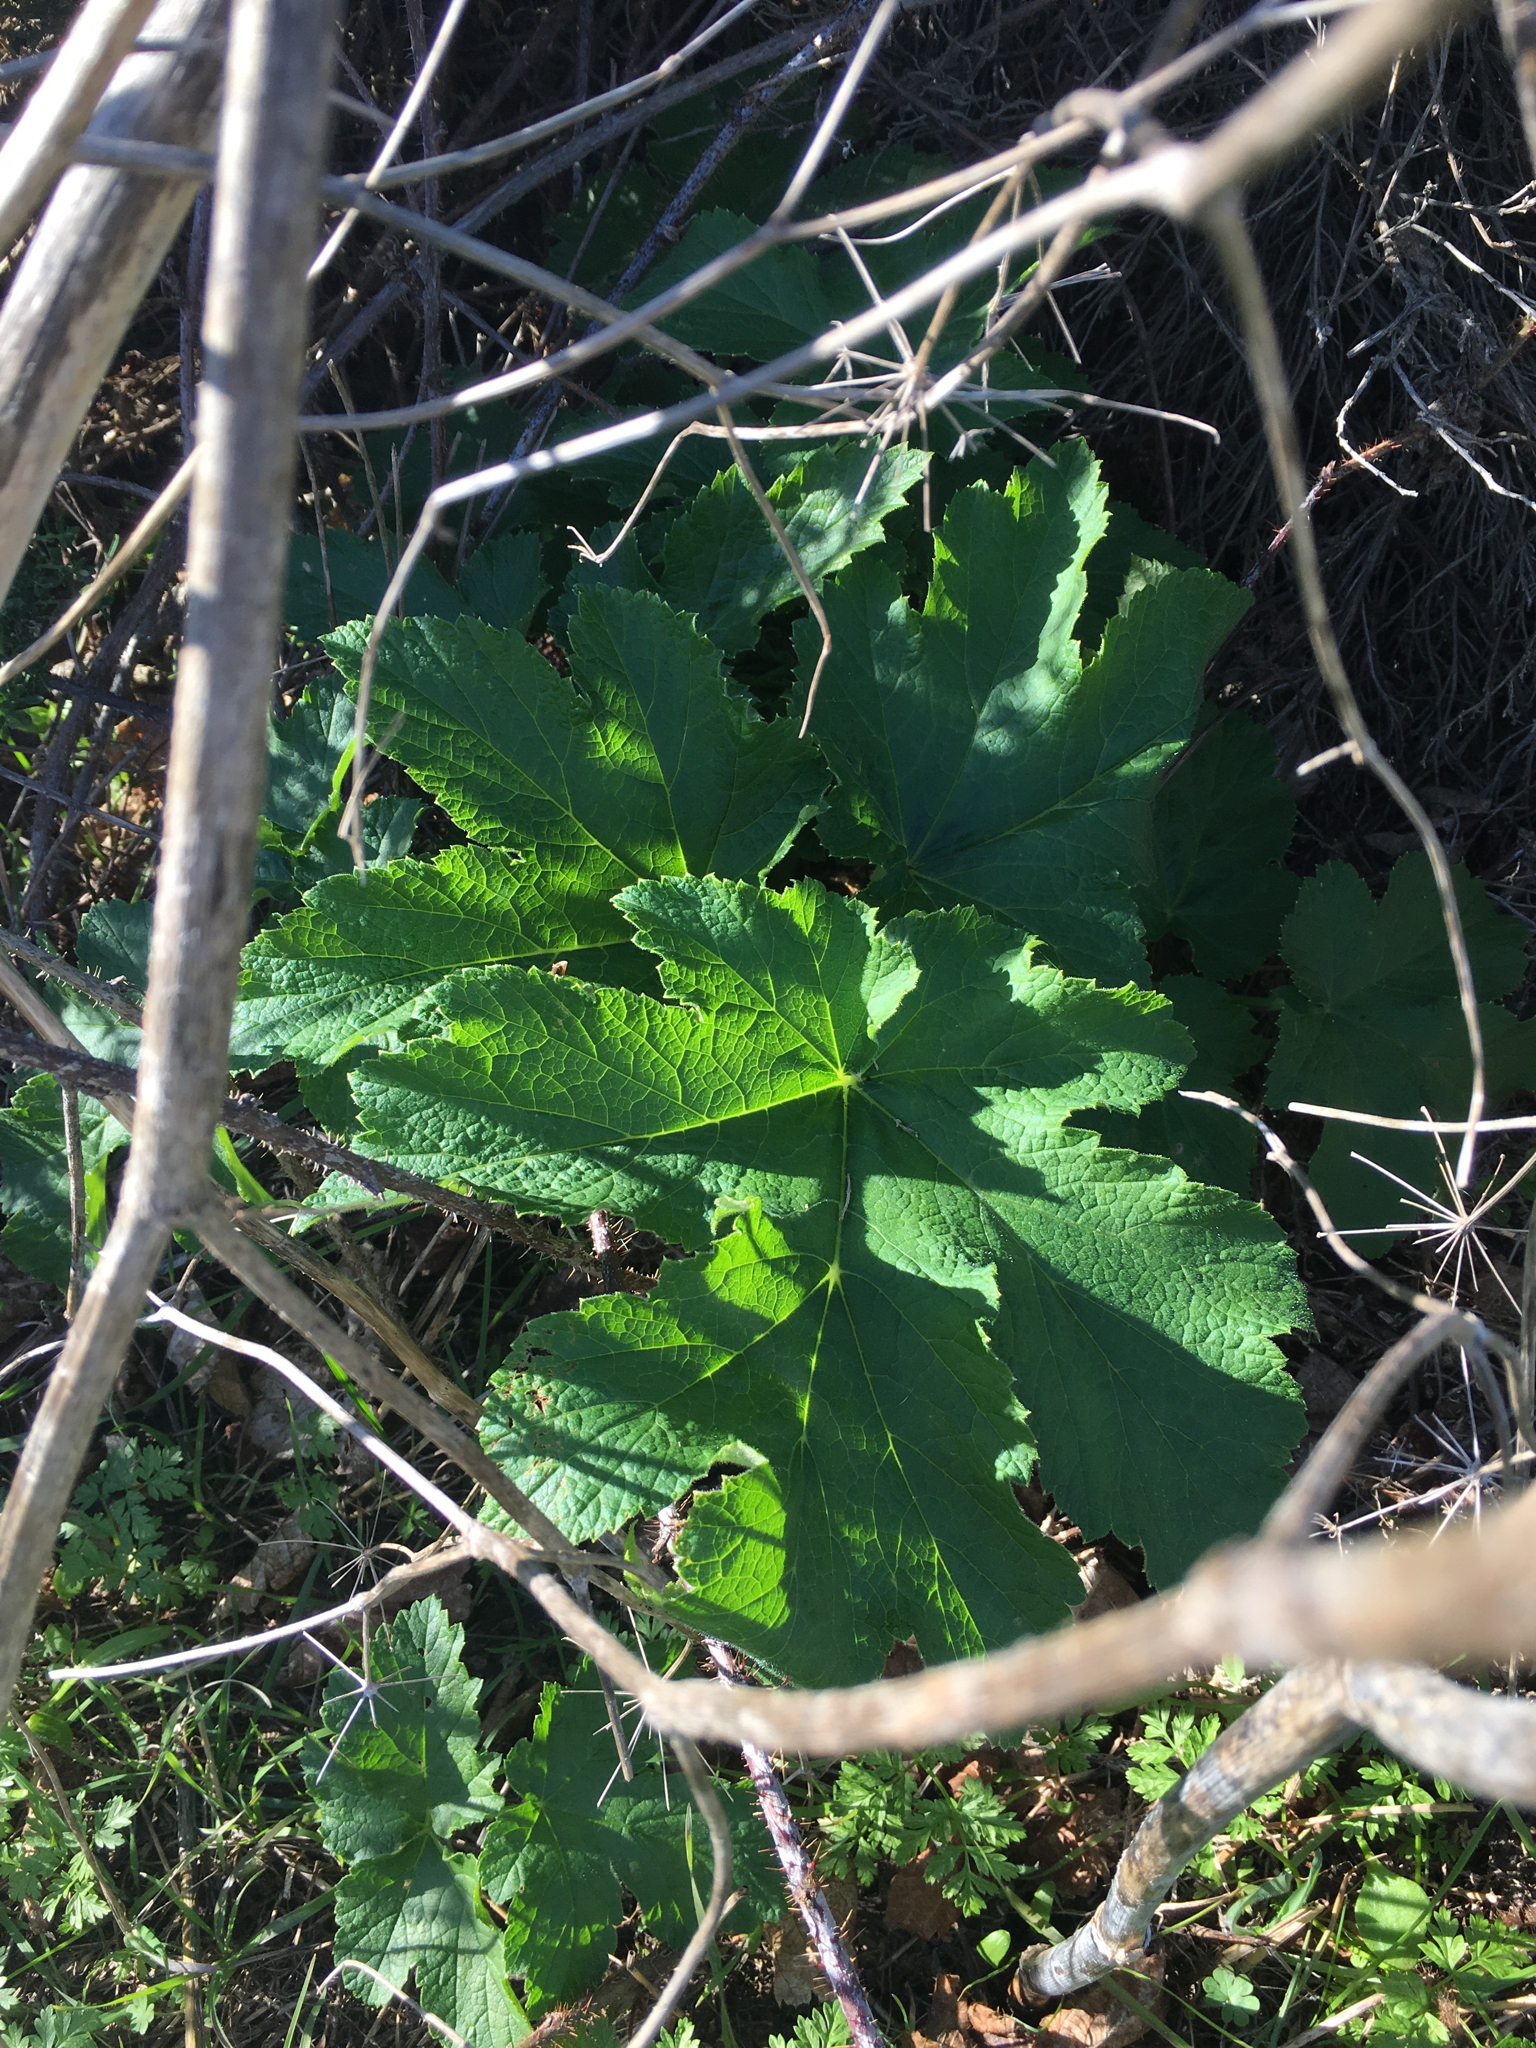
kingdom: Plantae
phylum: Tracheophyta
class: Magnoliopsida
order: Apiales
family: Apiaceae
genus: Heracleum
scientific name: Heracleum maximum
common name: American cow parsnip
